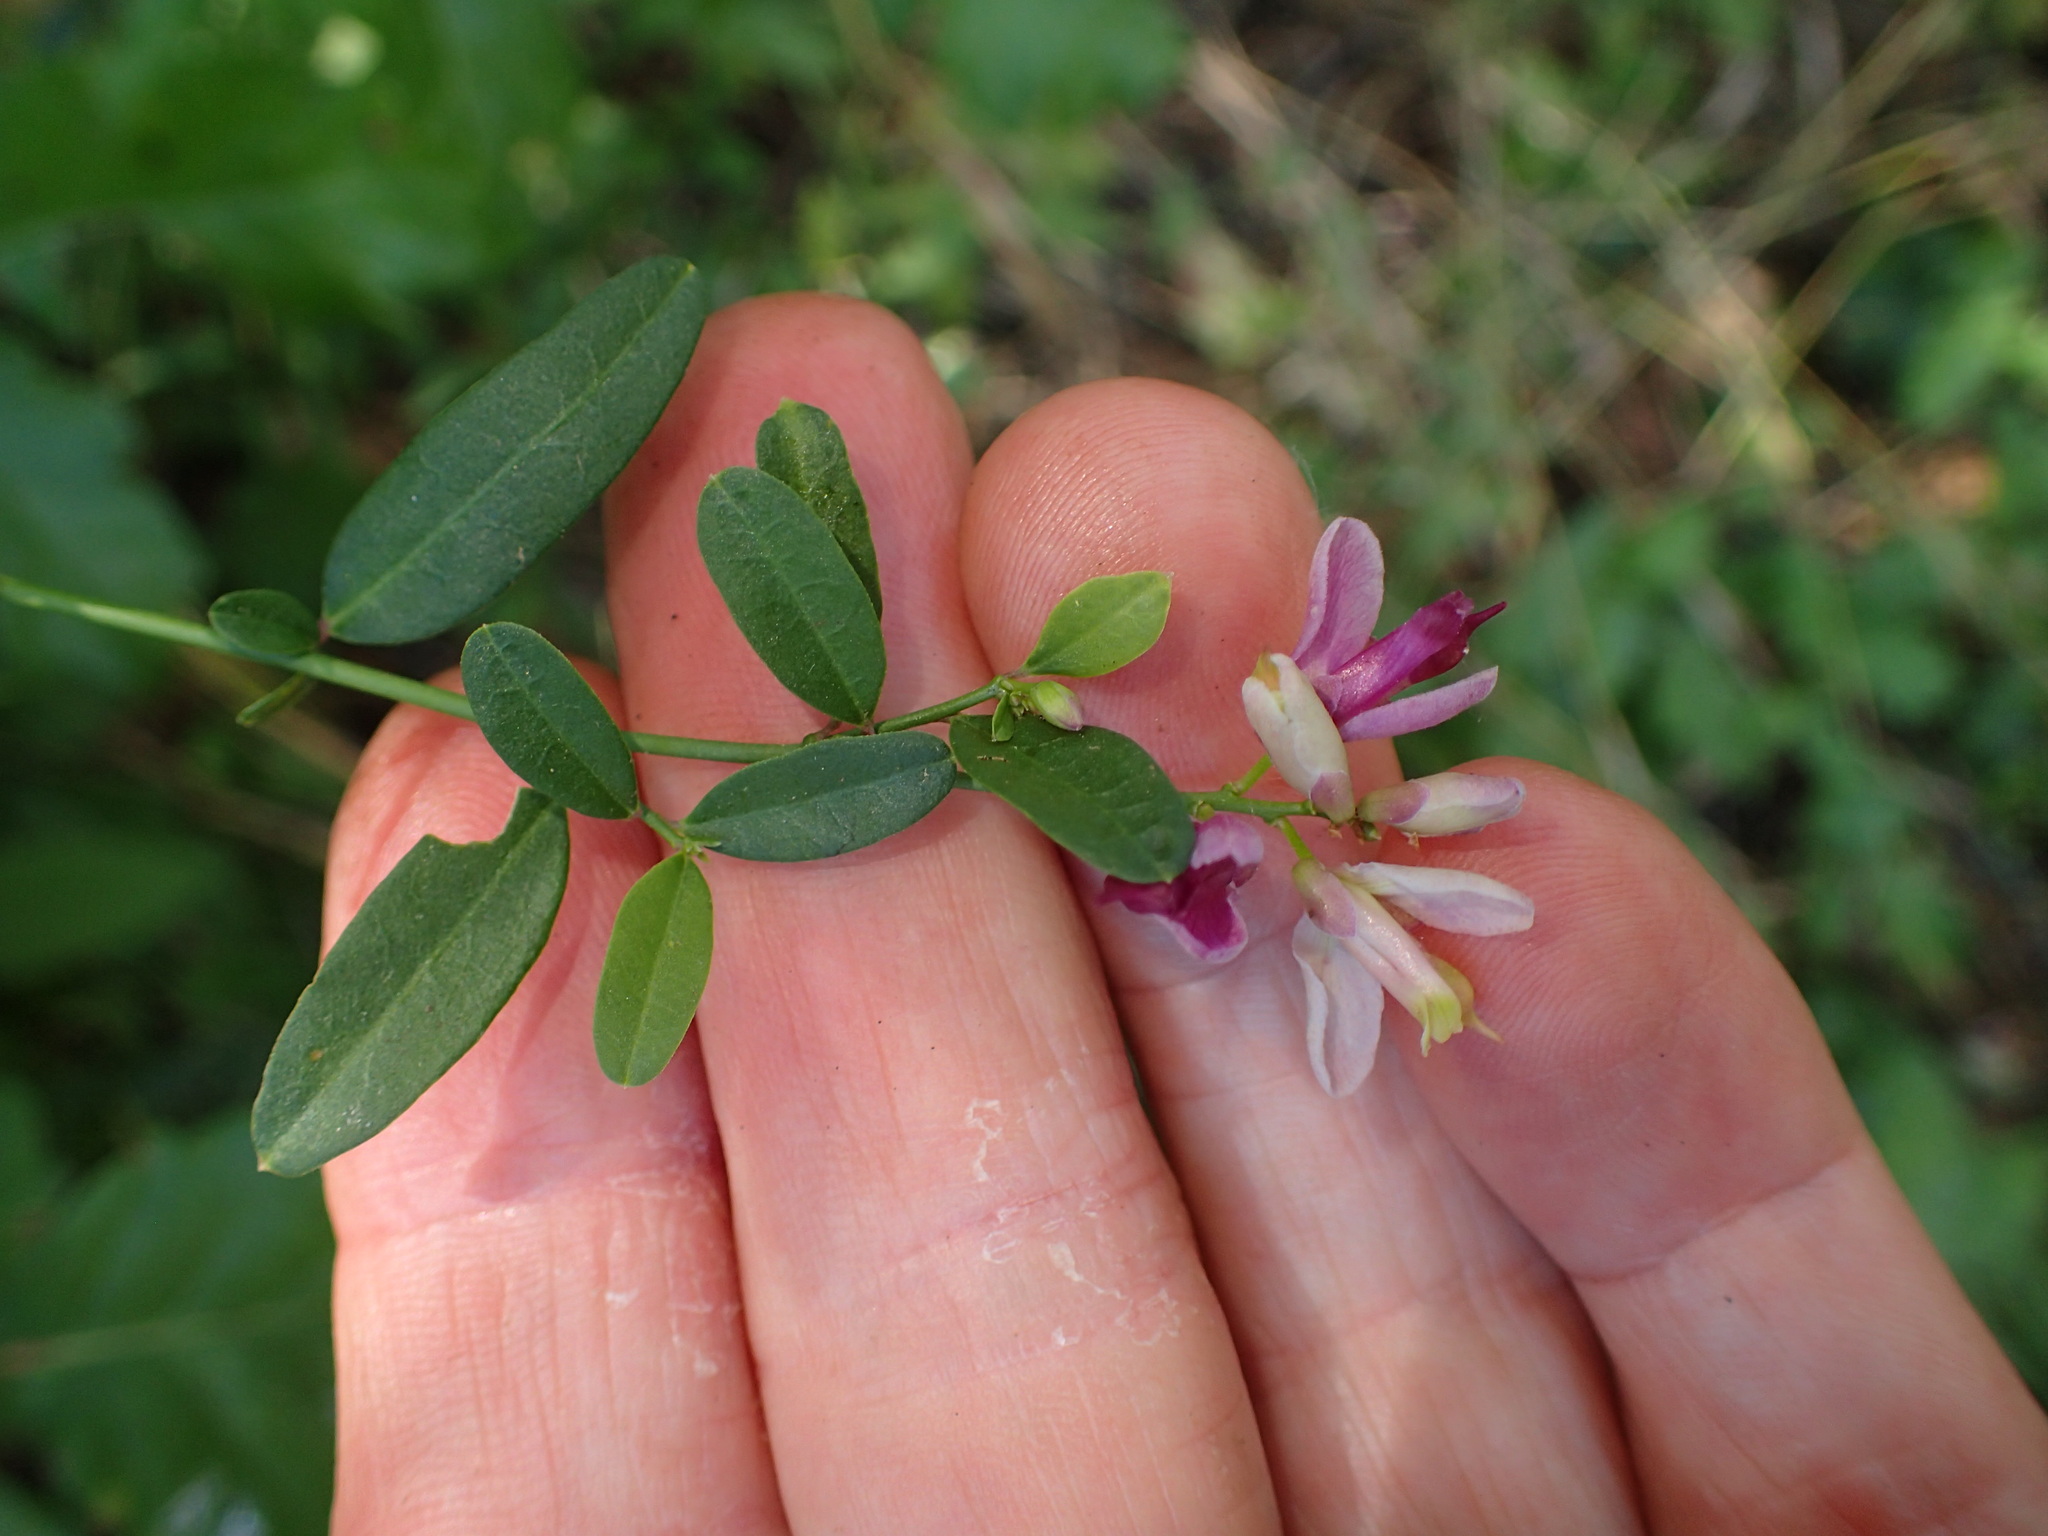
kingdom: Plantae
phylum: Tracheophyta
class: Magnoliopsida
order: Fabales
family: Polygalaceae
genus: Rhinotropis
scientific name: Rhinotropis cornuta
